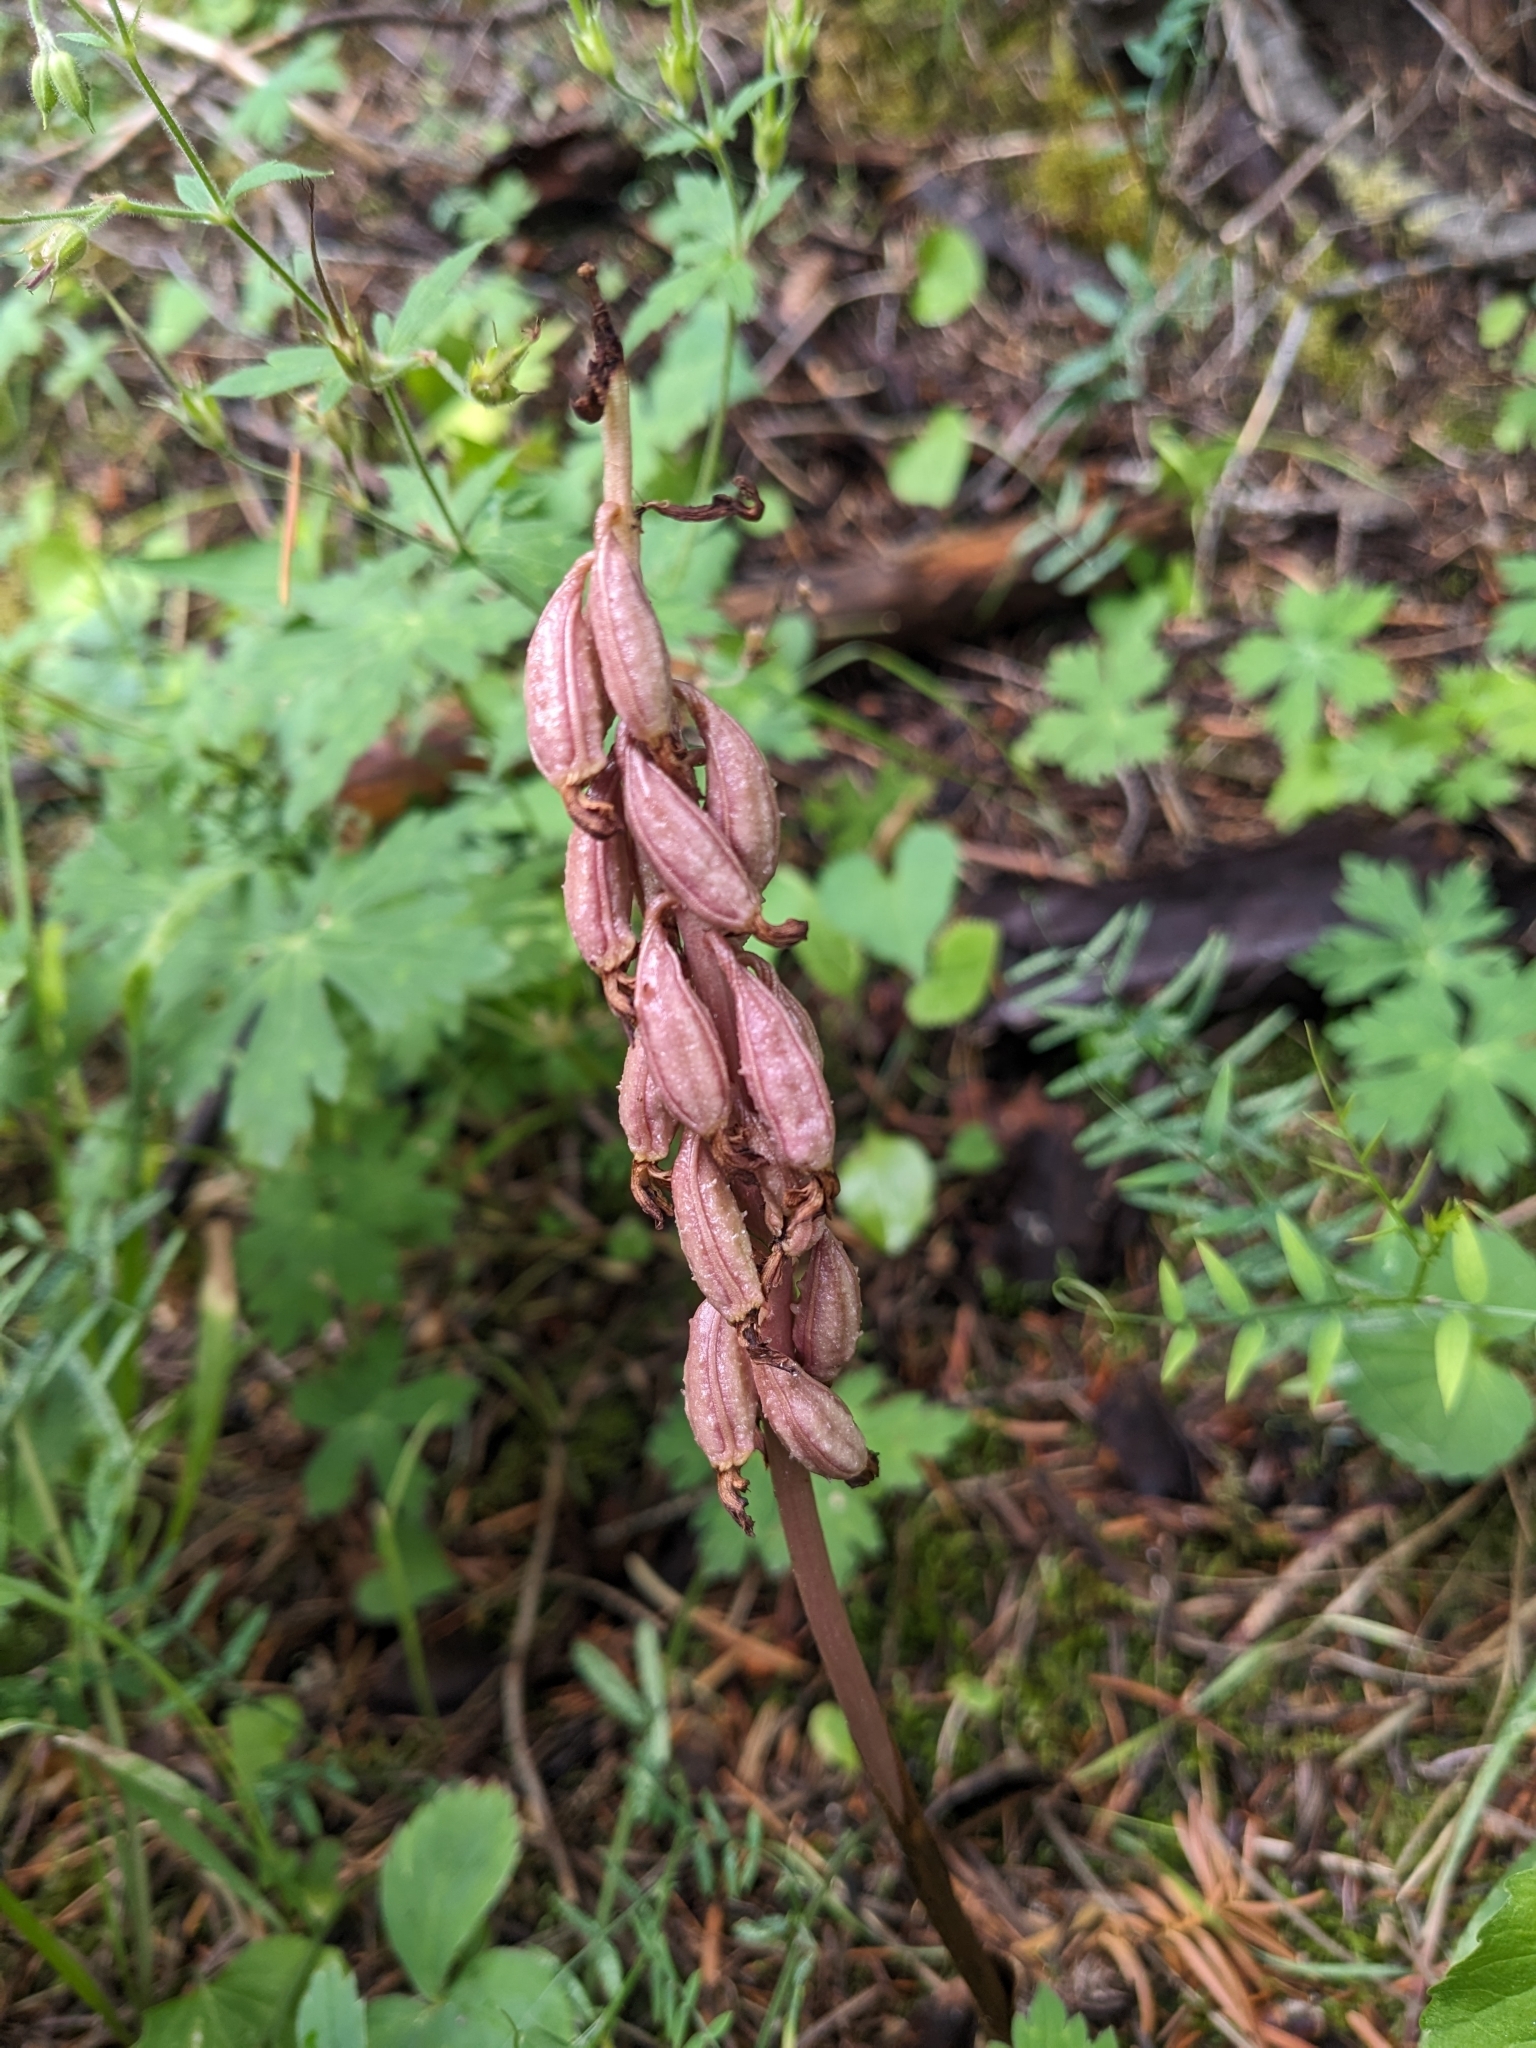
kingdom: Plantae
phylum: Tracheophyta
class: Liliopsida
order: Asparagales
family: Orchidaceae
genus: Corallorhiza
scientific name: Corallorhiza maculata
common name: Spotted coralroot
